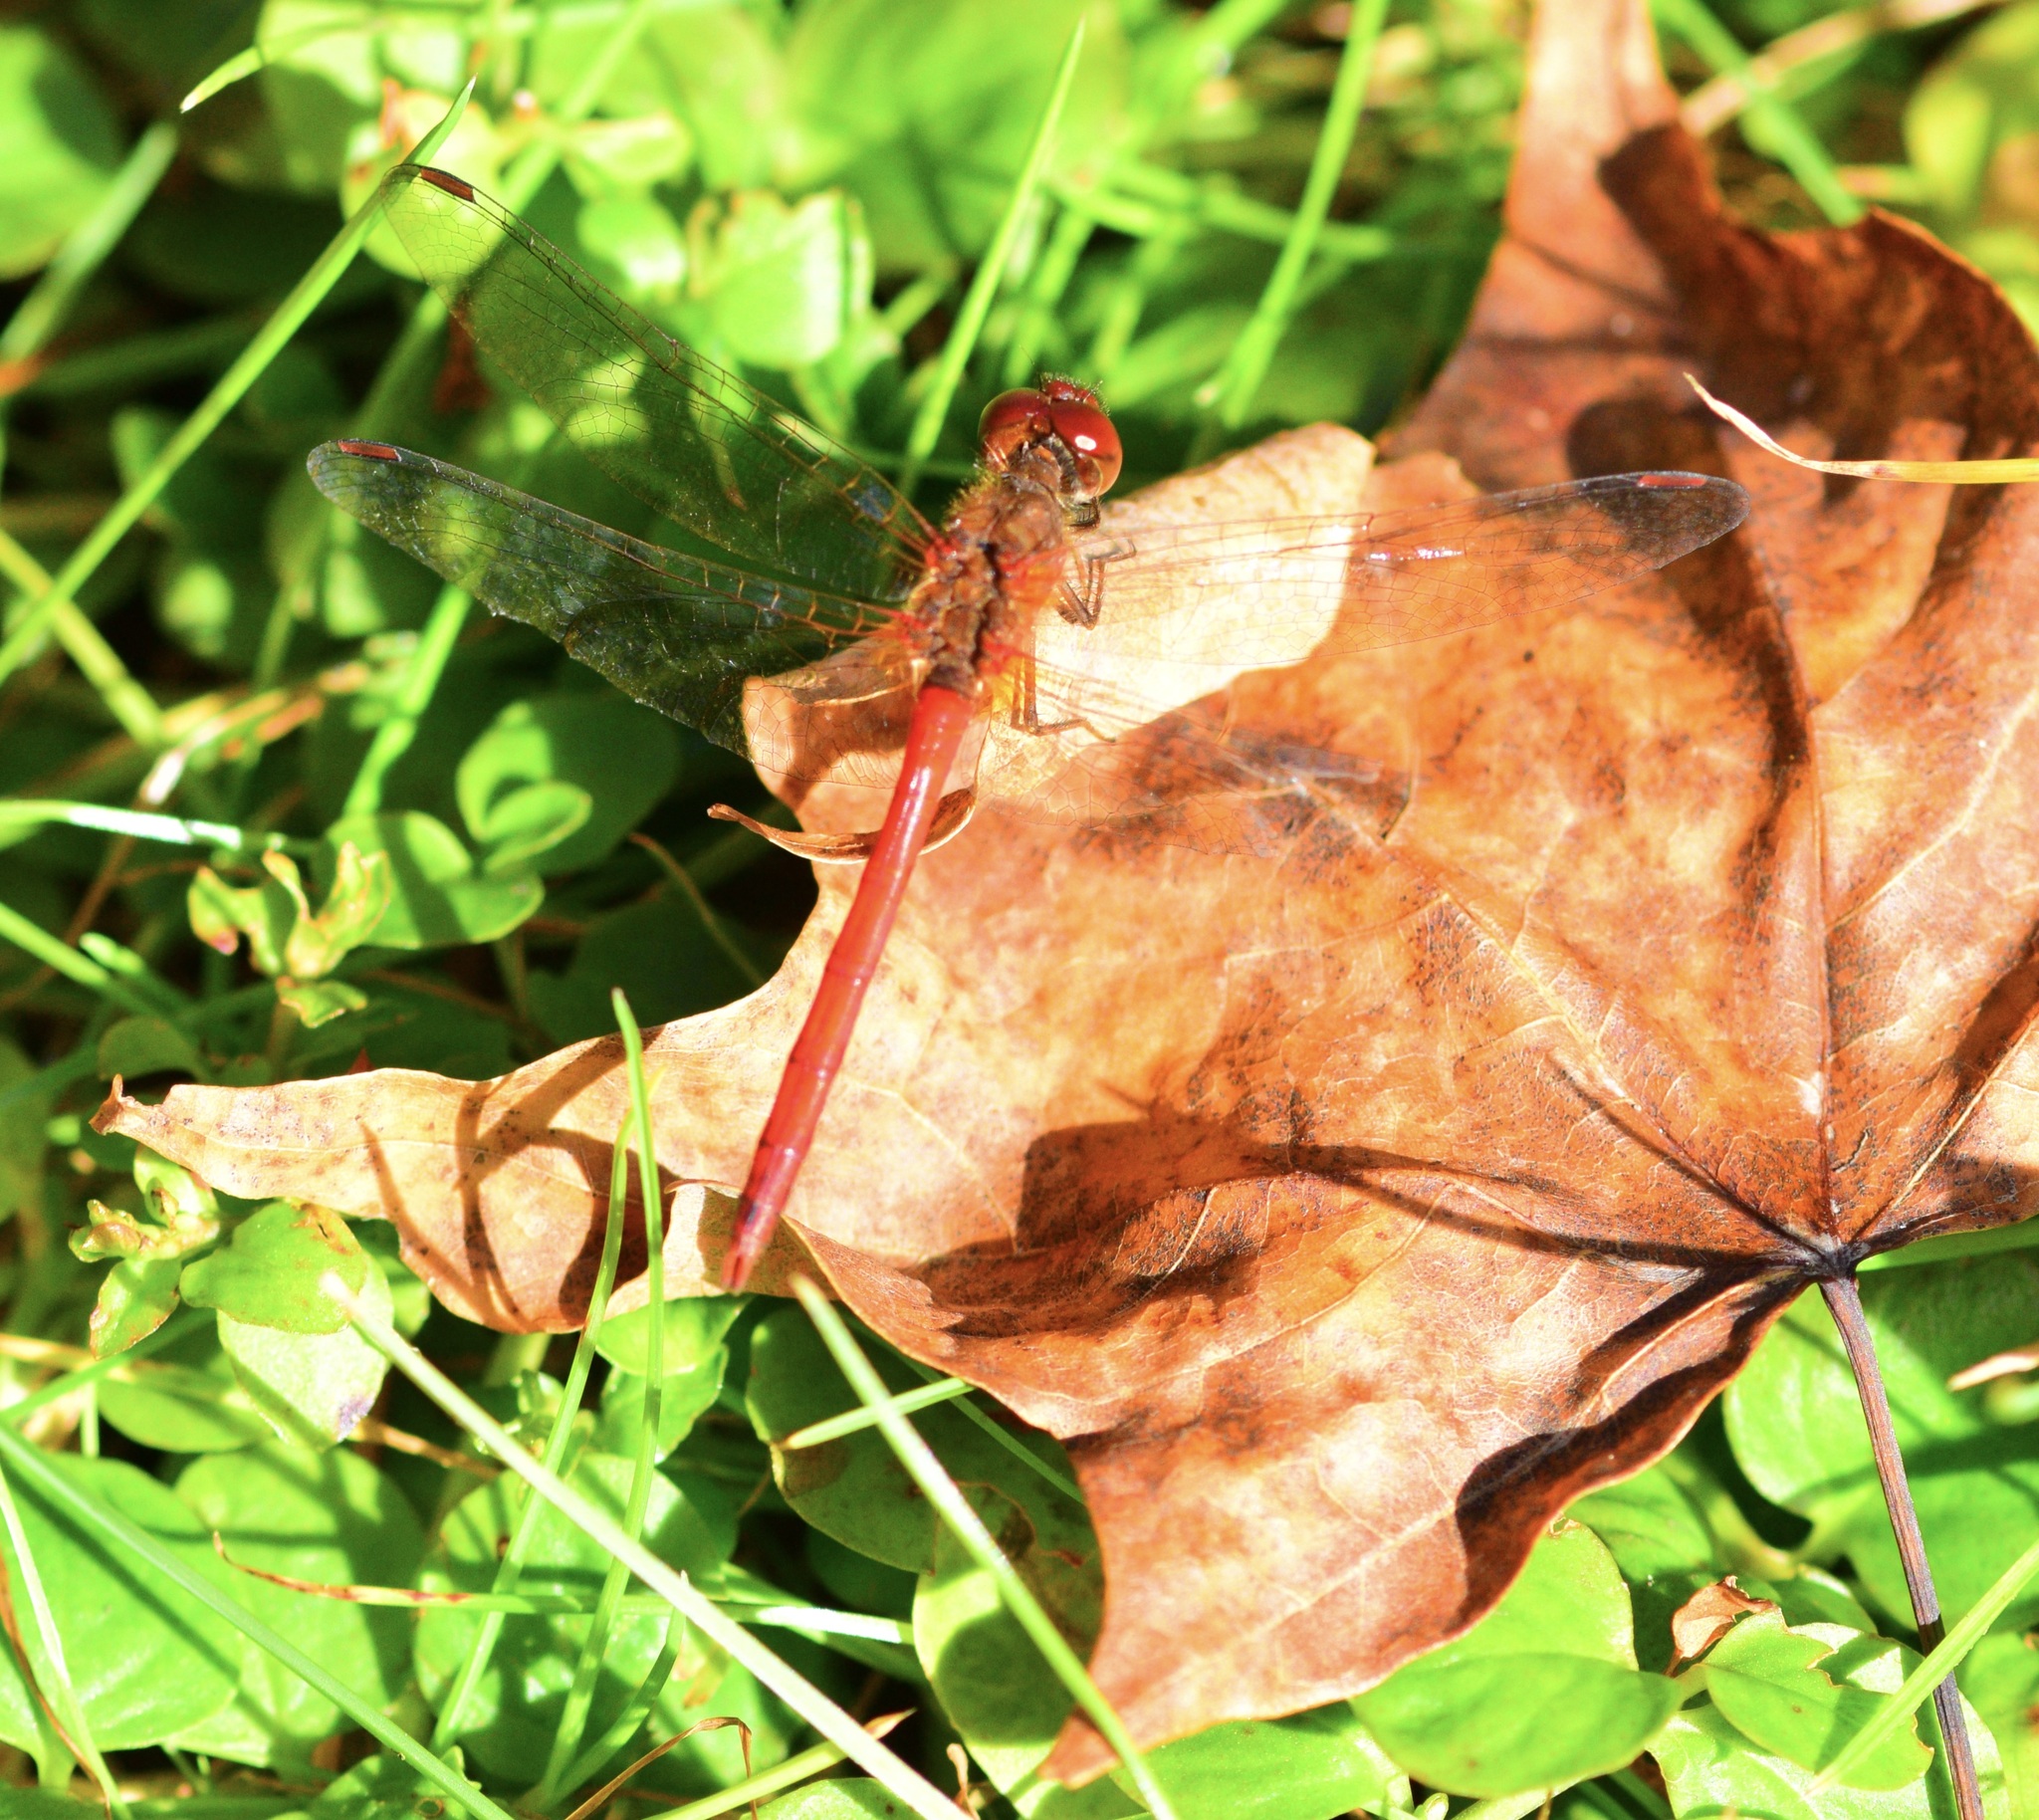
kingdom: Animalia
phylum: Arthropoda
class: Insecta
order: Odonata
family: Libellulidae
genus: Sympetrum
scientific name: Sympetrum vicinum
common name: Autumn meadowhawk
